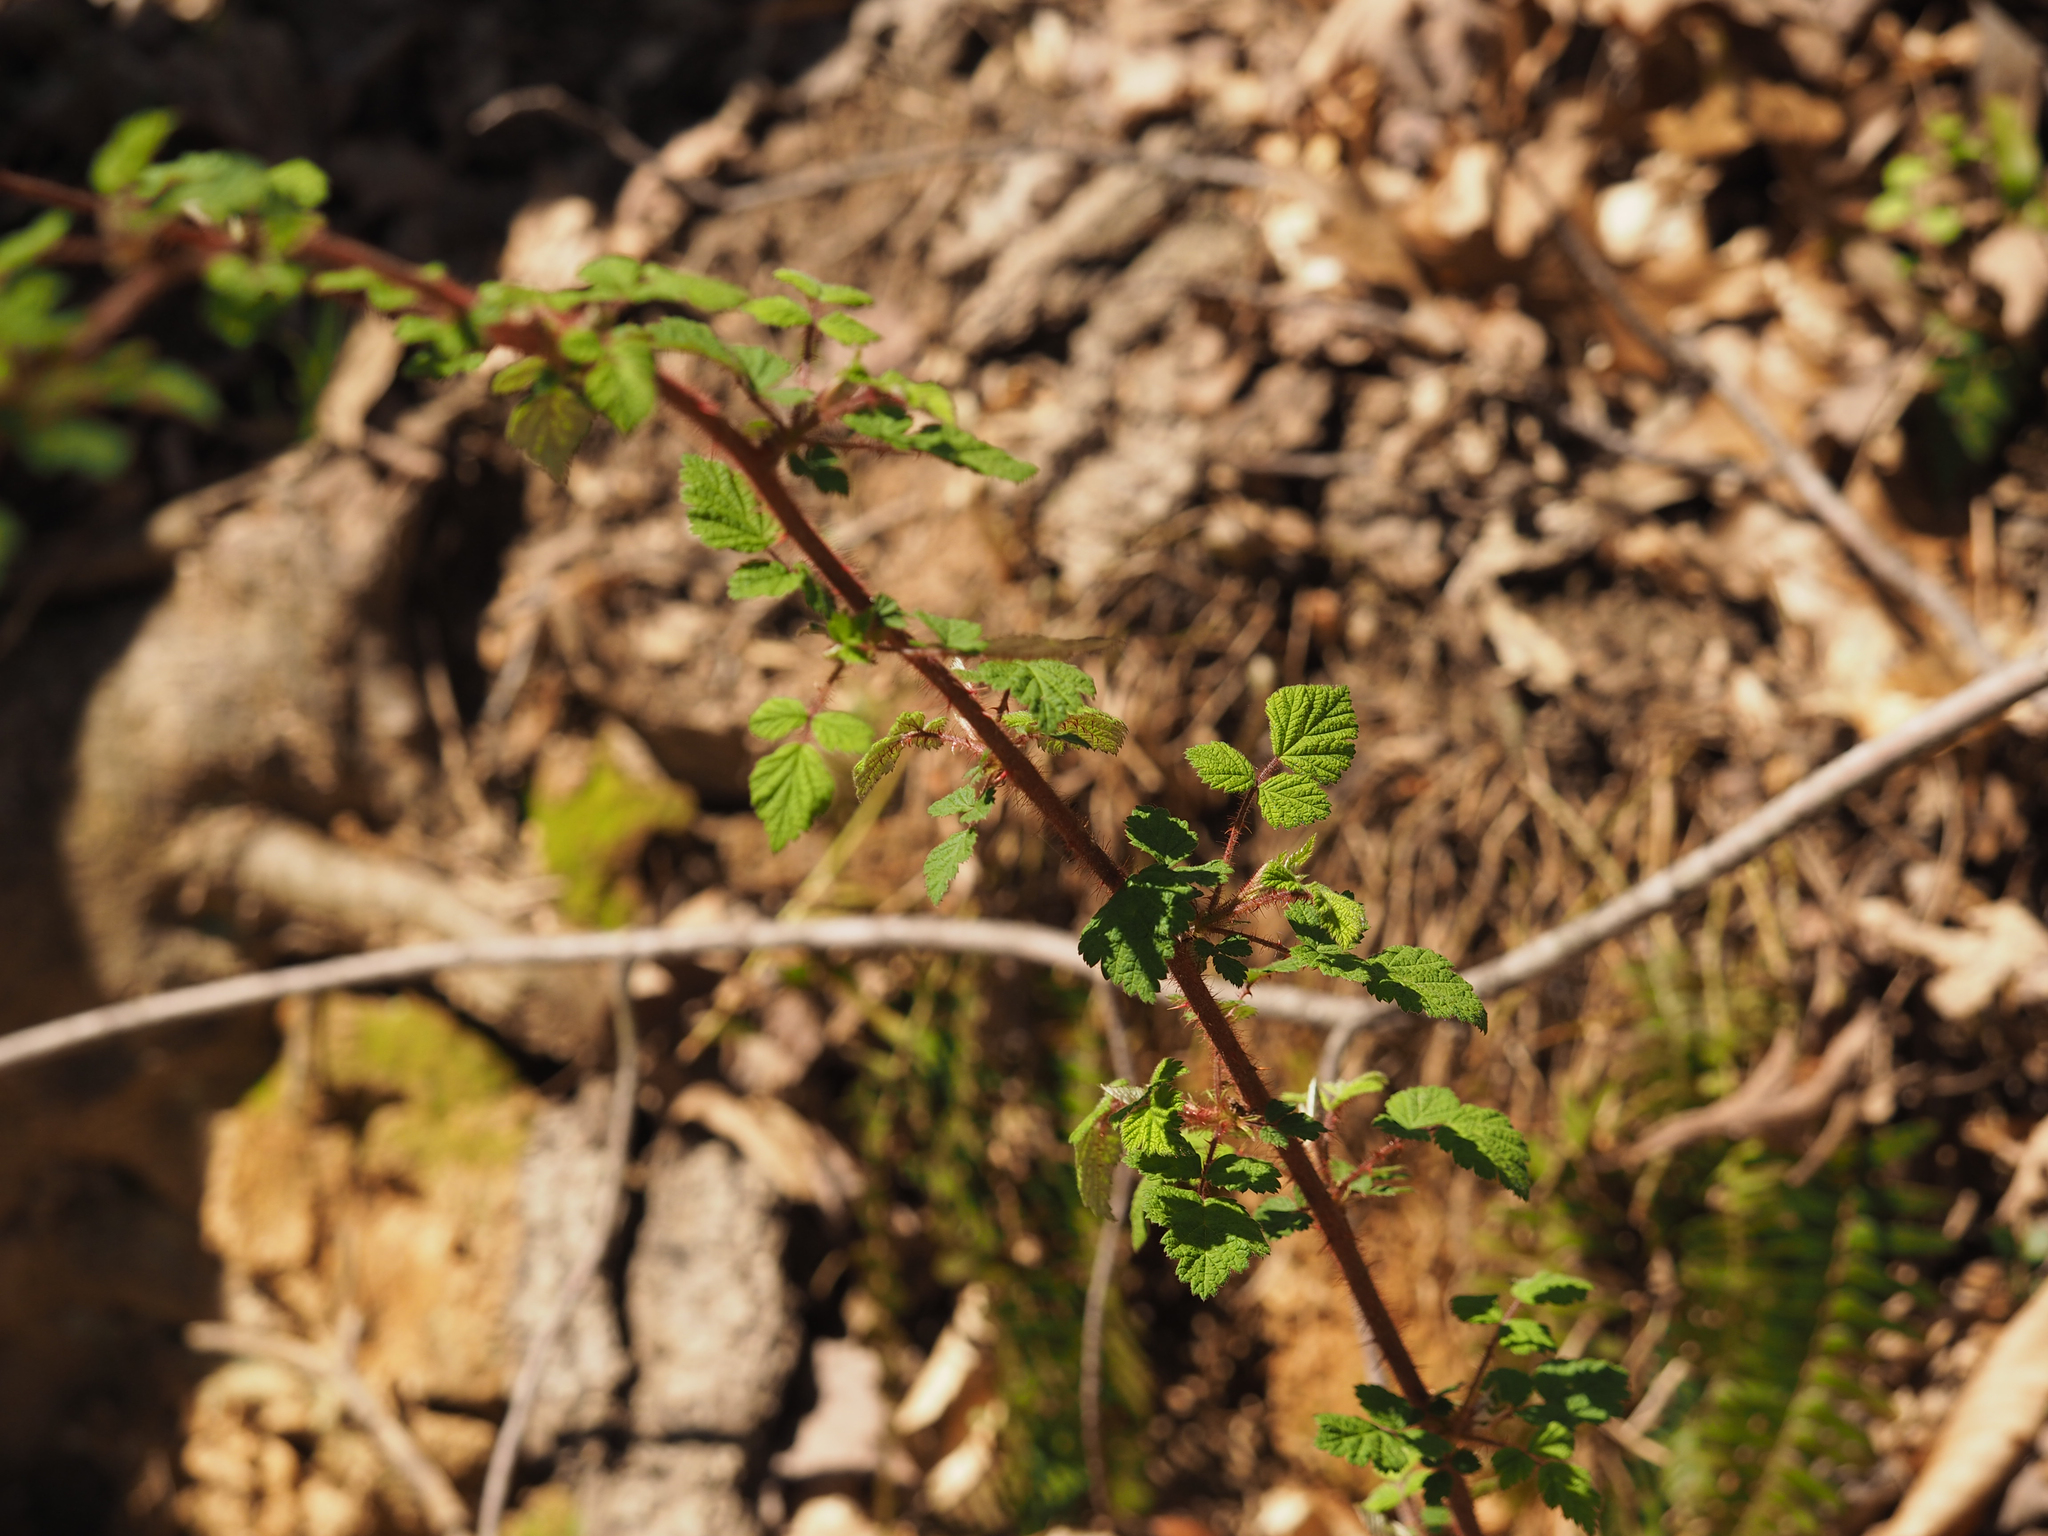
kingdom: Plantae
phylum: Tracheophyta
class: Magnoliopsida
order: Rosales
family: Rosaceae
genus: Rubus
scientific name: Rubus phoenicolasius
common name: Japanese wineberry
